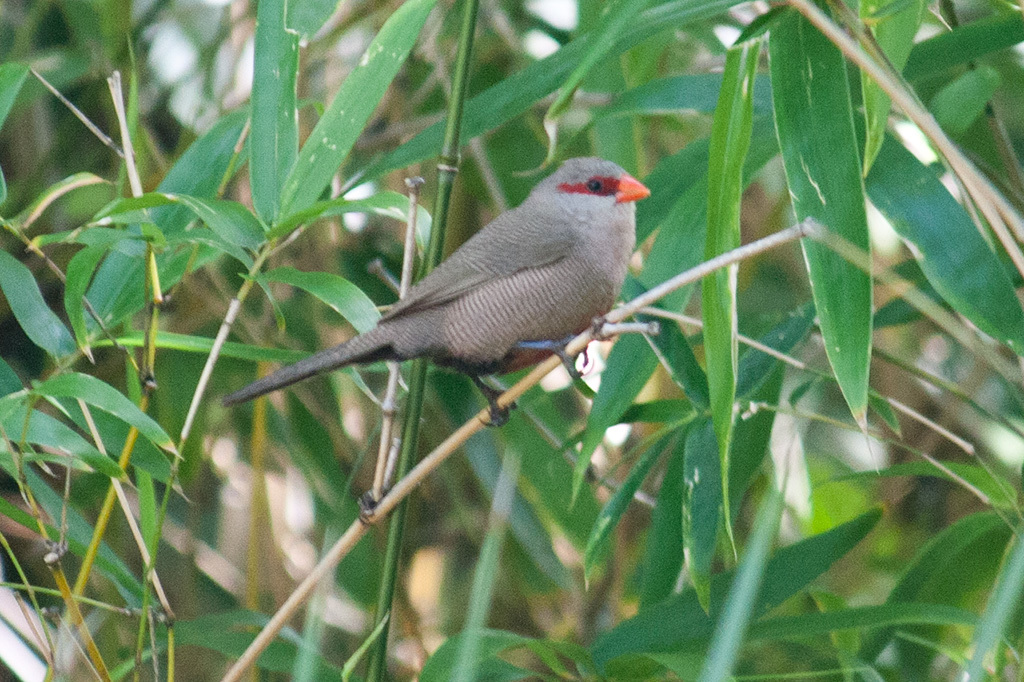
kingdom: Animalia
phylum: Chordata
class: Aves
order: Passeriformes
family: Estrildidae
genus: Estrilda
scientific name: Estrilda astrild
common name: Common waxbill
